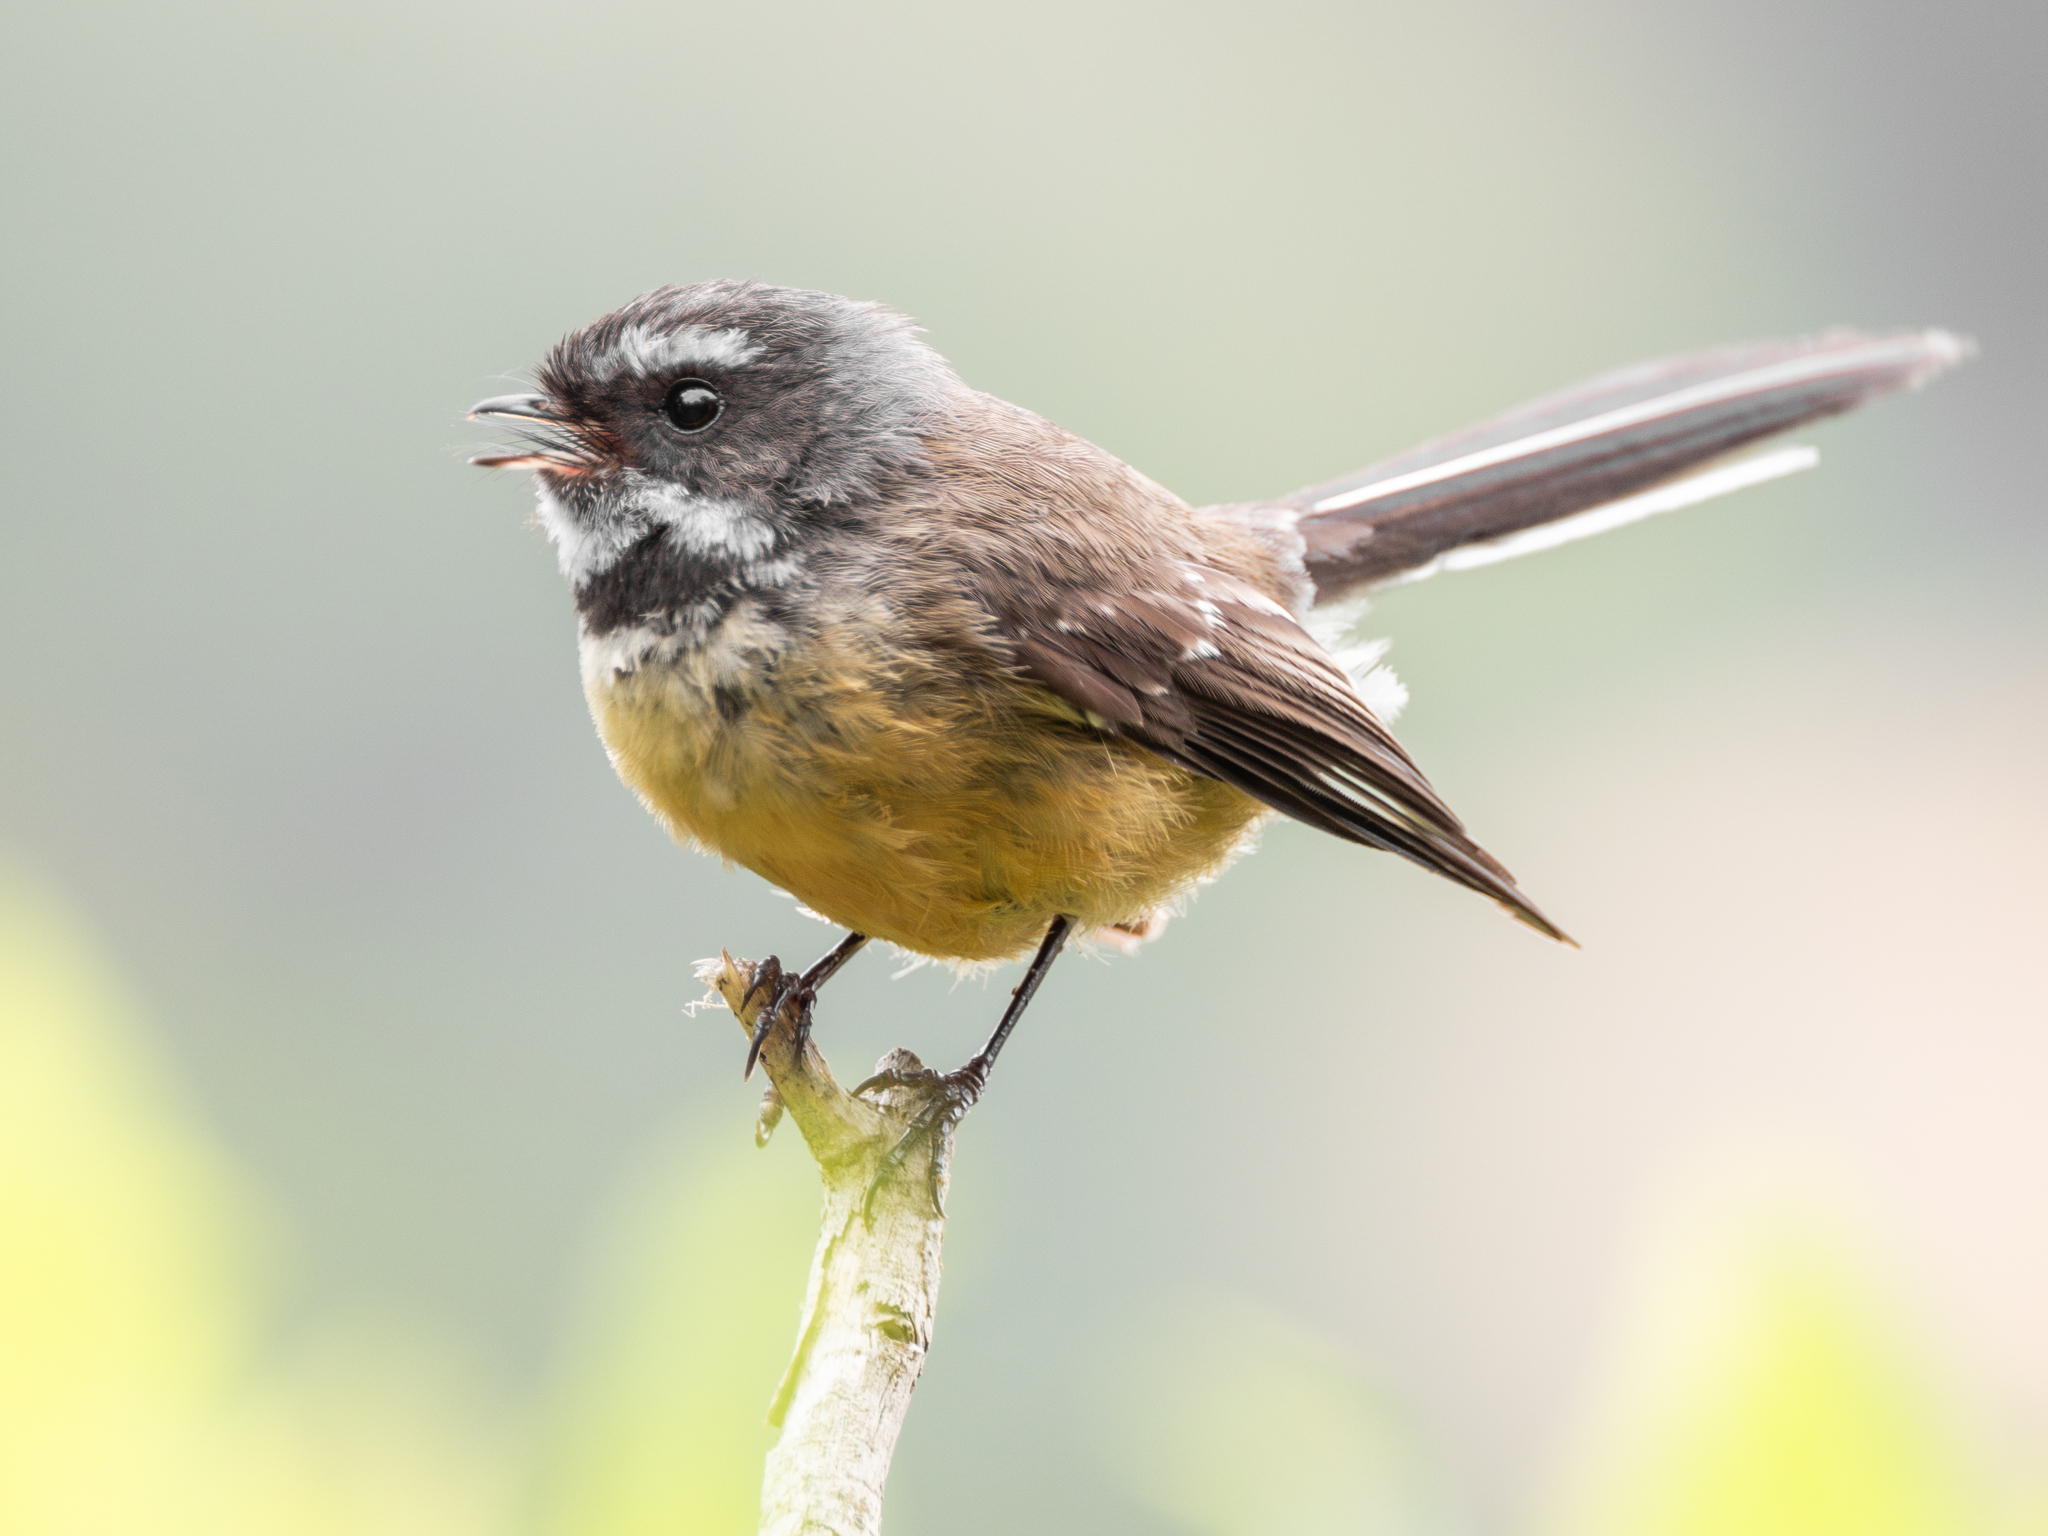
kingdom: Animalia
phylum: Chordata
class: Aves
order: Passeriformes
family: Rhipiduridae
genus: Rhipidura
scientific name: Rhipidura fuliginosa
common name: New zealand fantail
